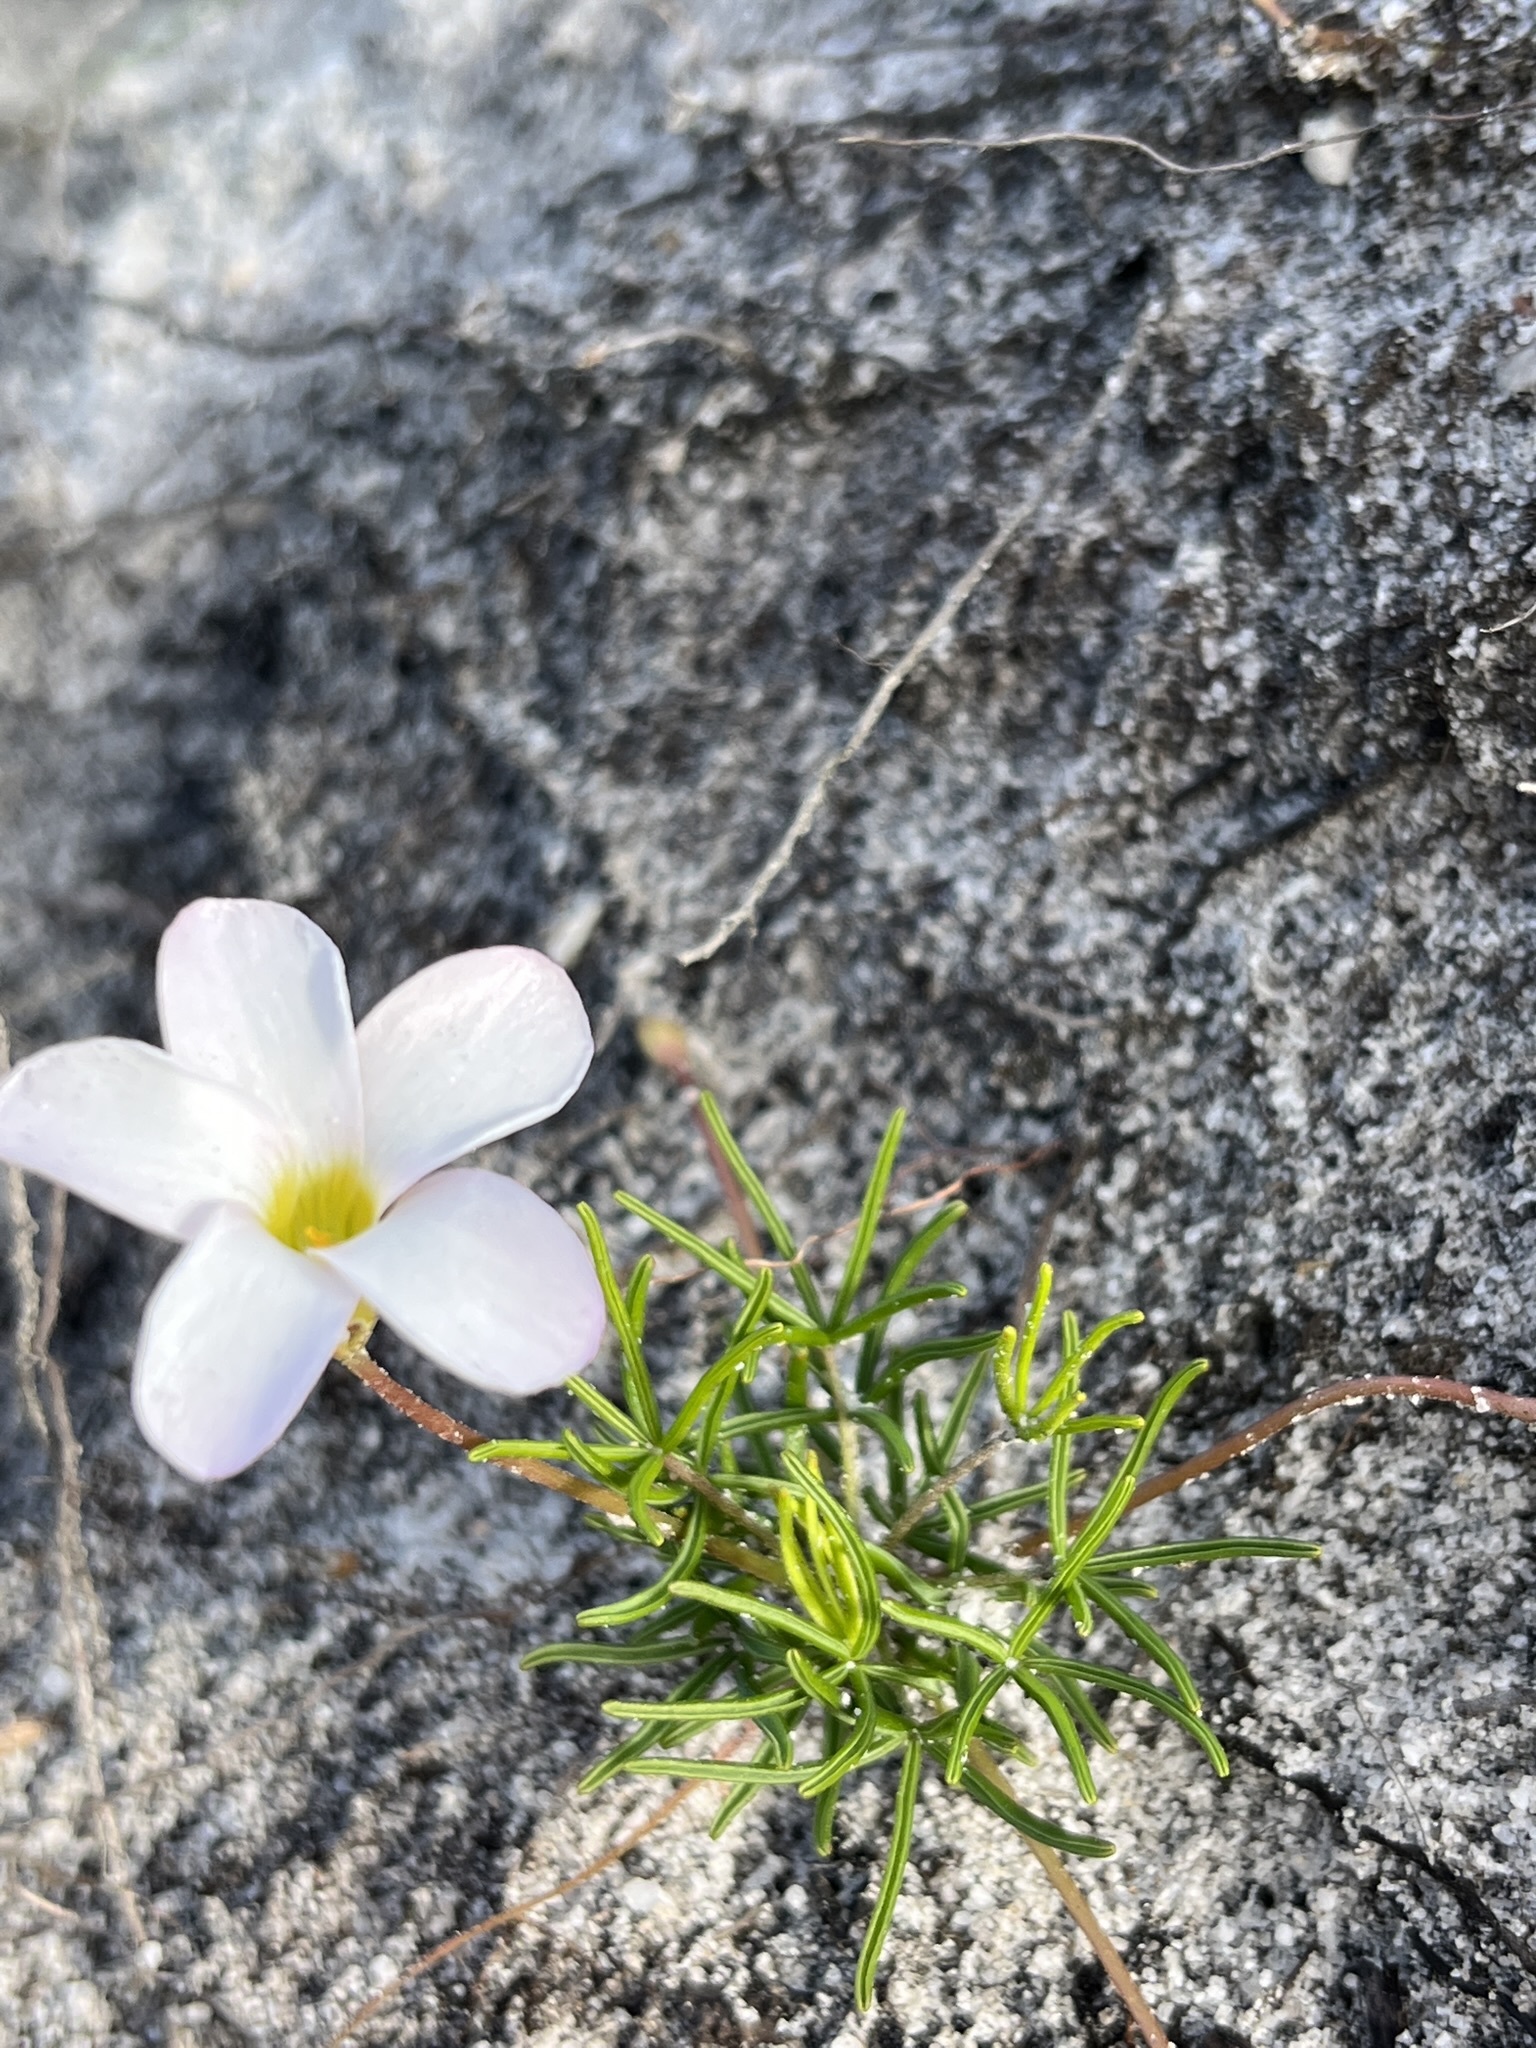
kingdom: Plantae
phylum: Tracheophyta
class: Magnoliopsida
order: Oxalidales
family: Oxalidaceae
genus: Oxalis
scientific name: Oxalis polyphylla
